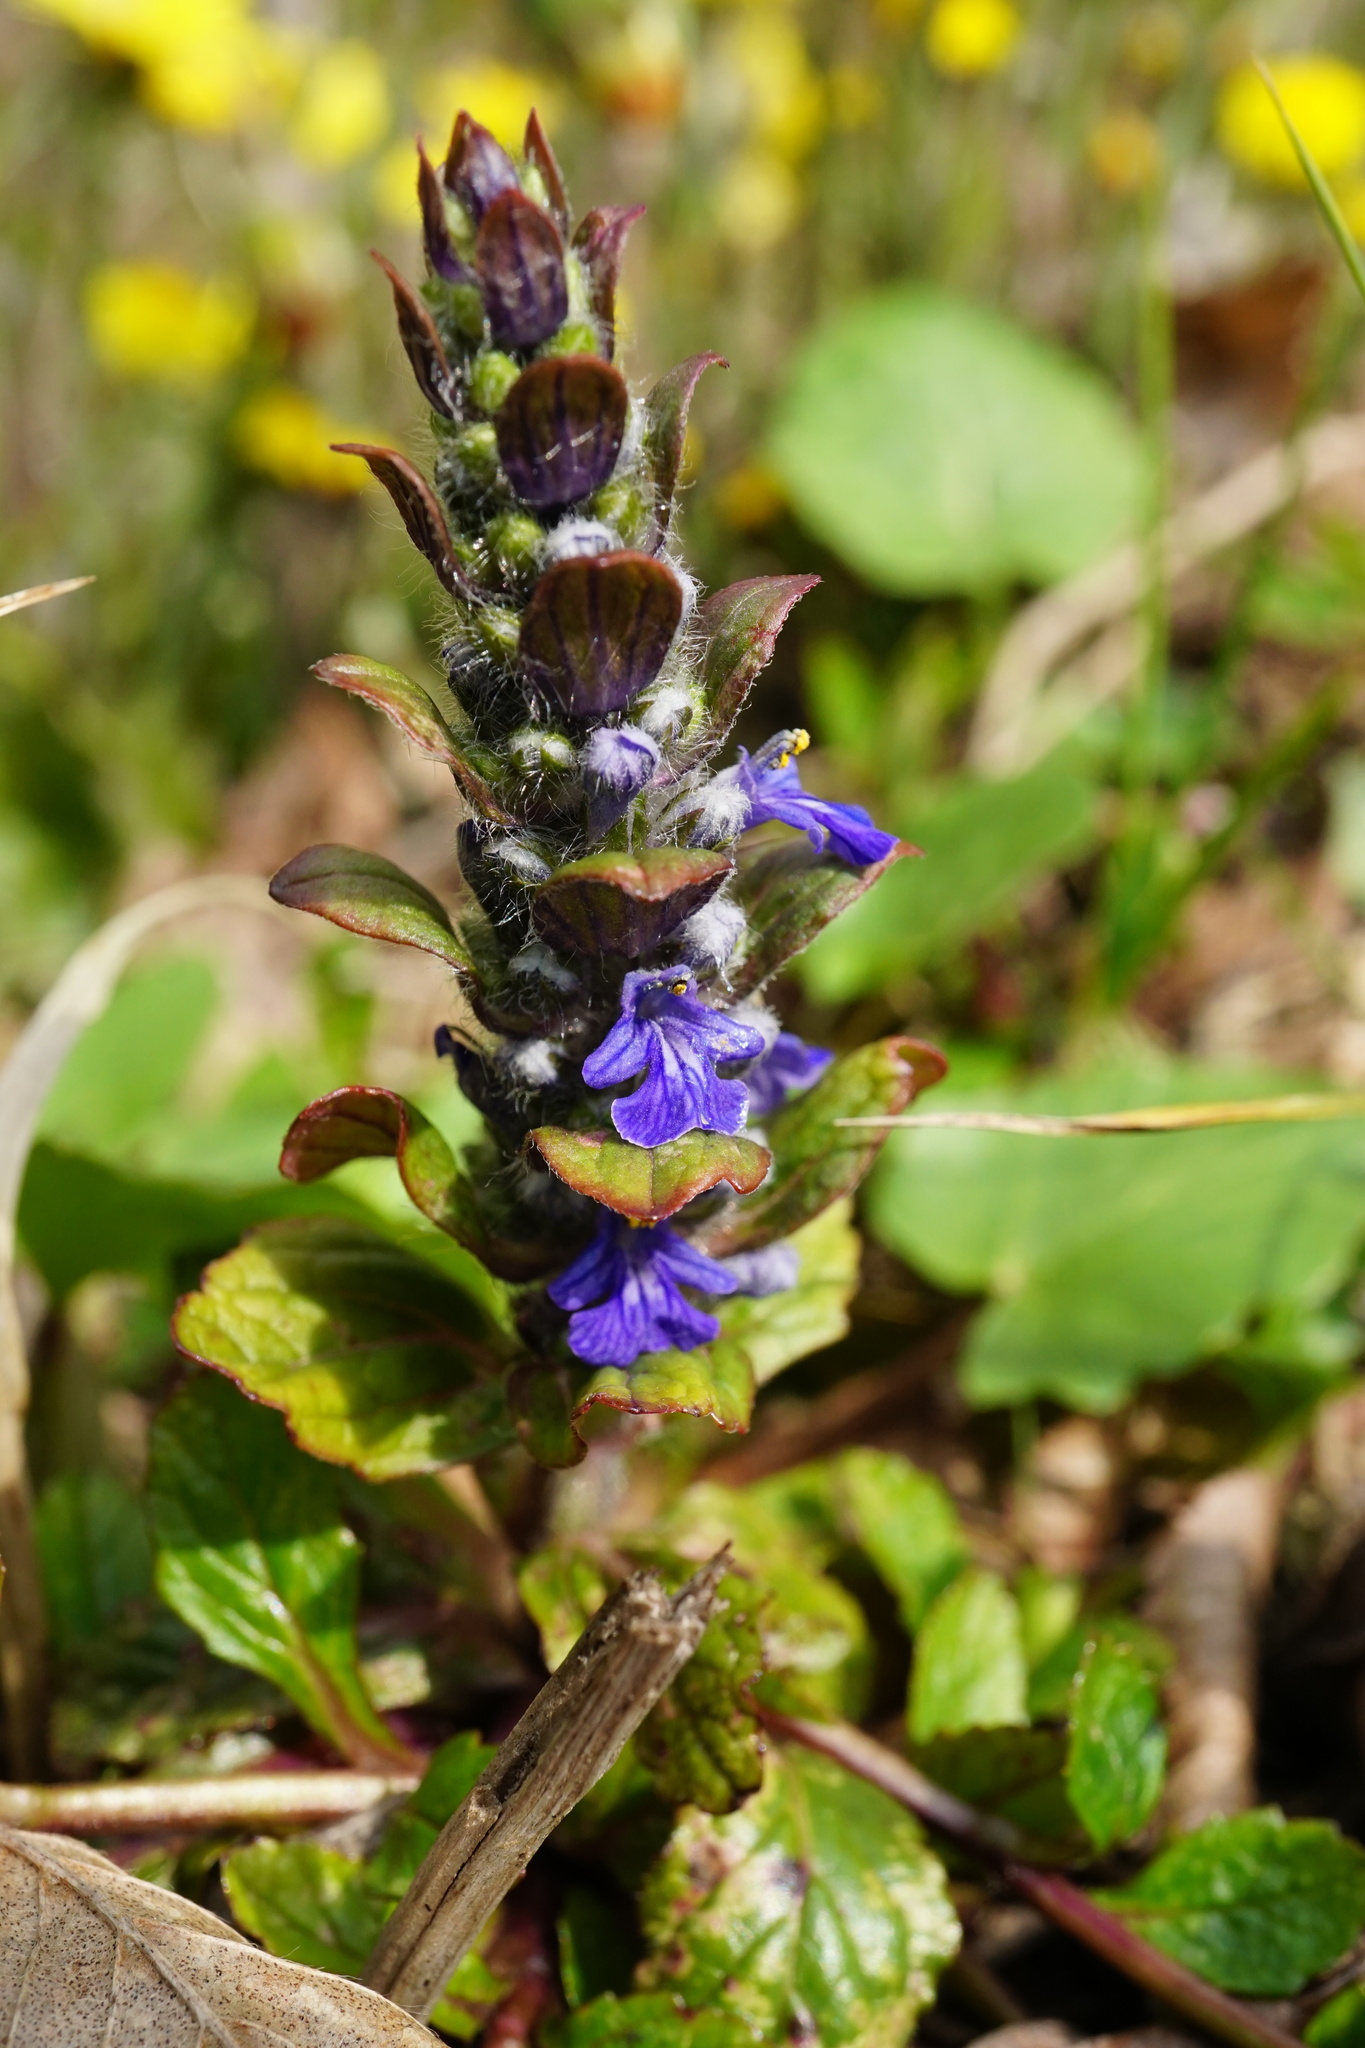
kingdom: Plantae
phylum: Tracheophyta
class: Magnoliopsida
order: Lamiales
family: Lamiaceae
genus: Ajuga
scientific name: Ajuga reptans
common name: Bugle
